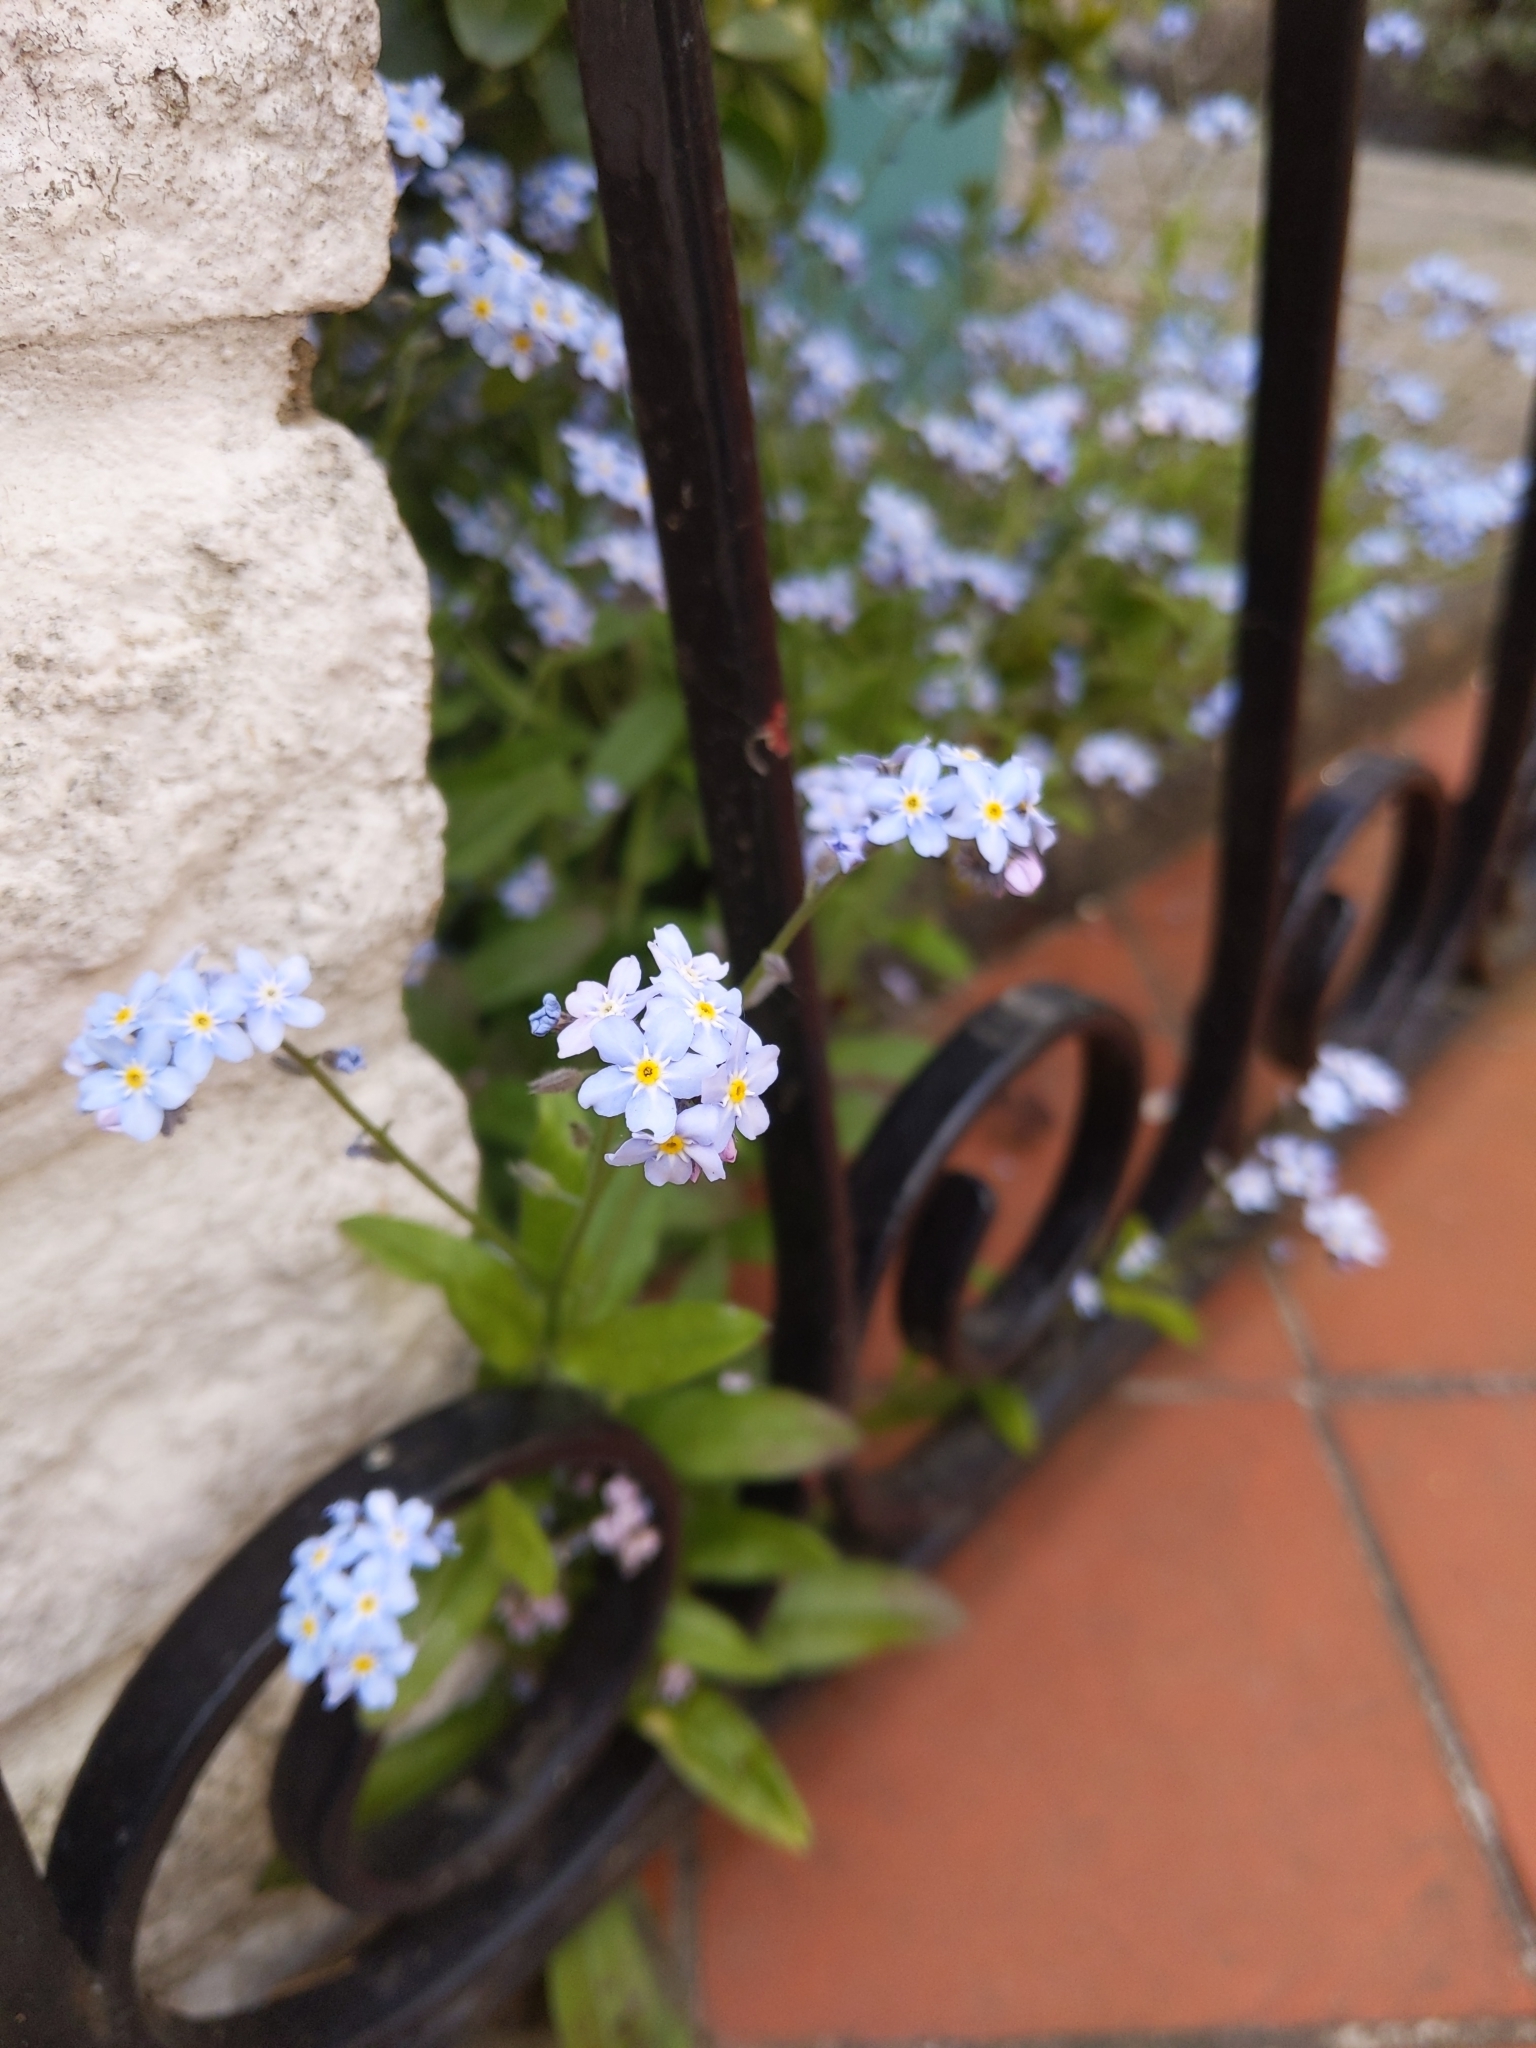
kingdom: Plantae
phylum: Tracheophyta
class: Magnoliopsida
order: Boraginales
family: Boraginaceae
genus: Myosotis
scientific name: Myosotis sylvatica
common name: Wood forget-me-not
